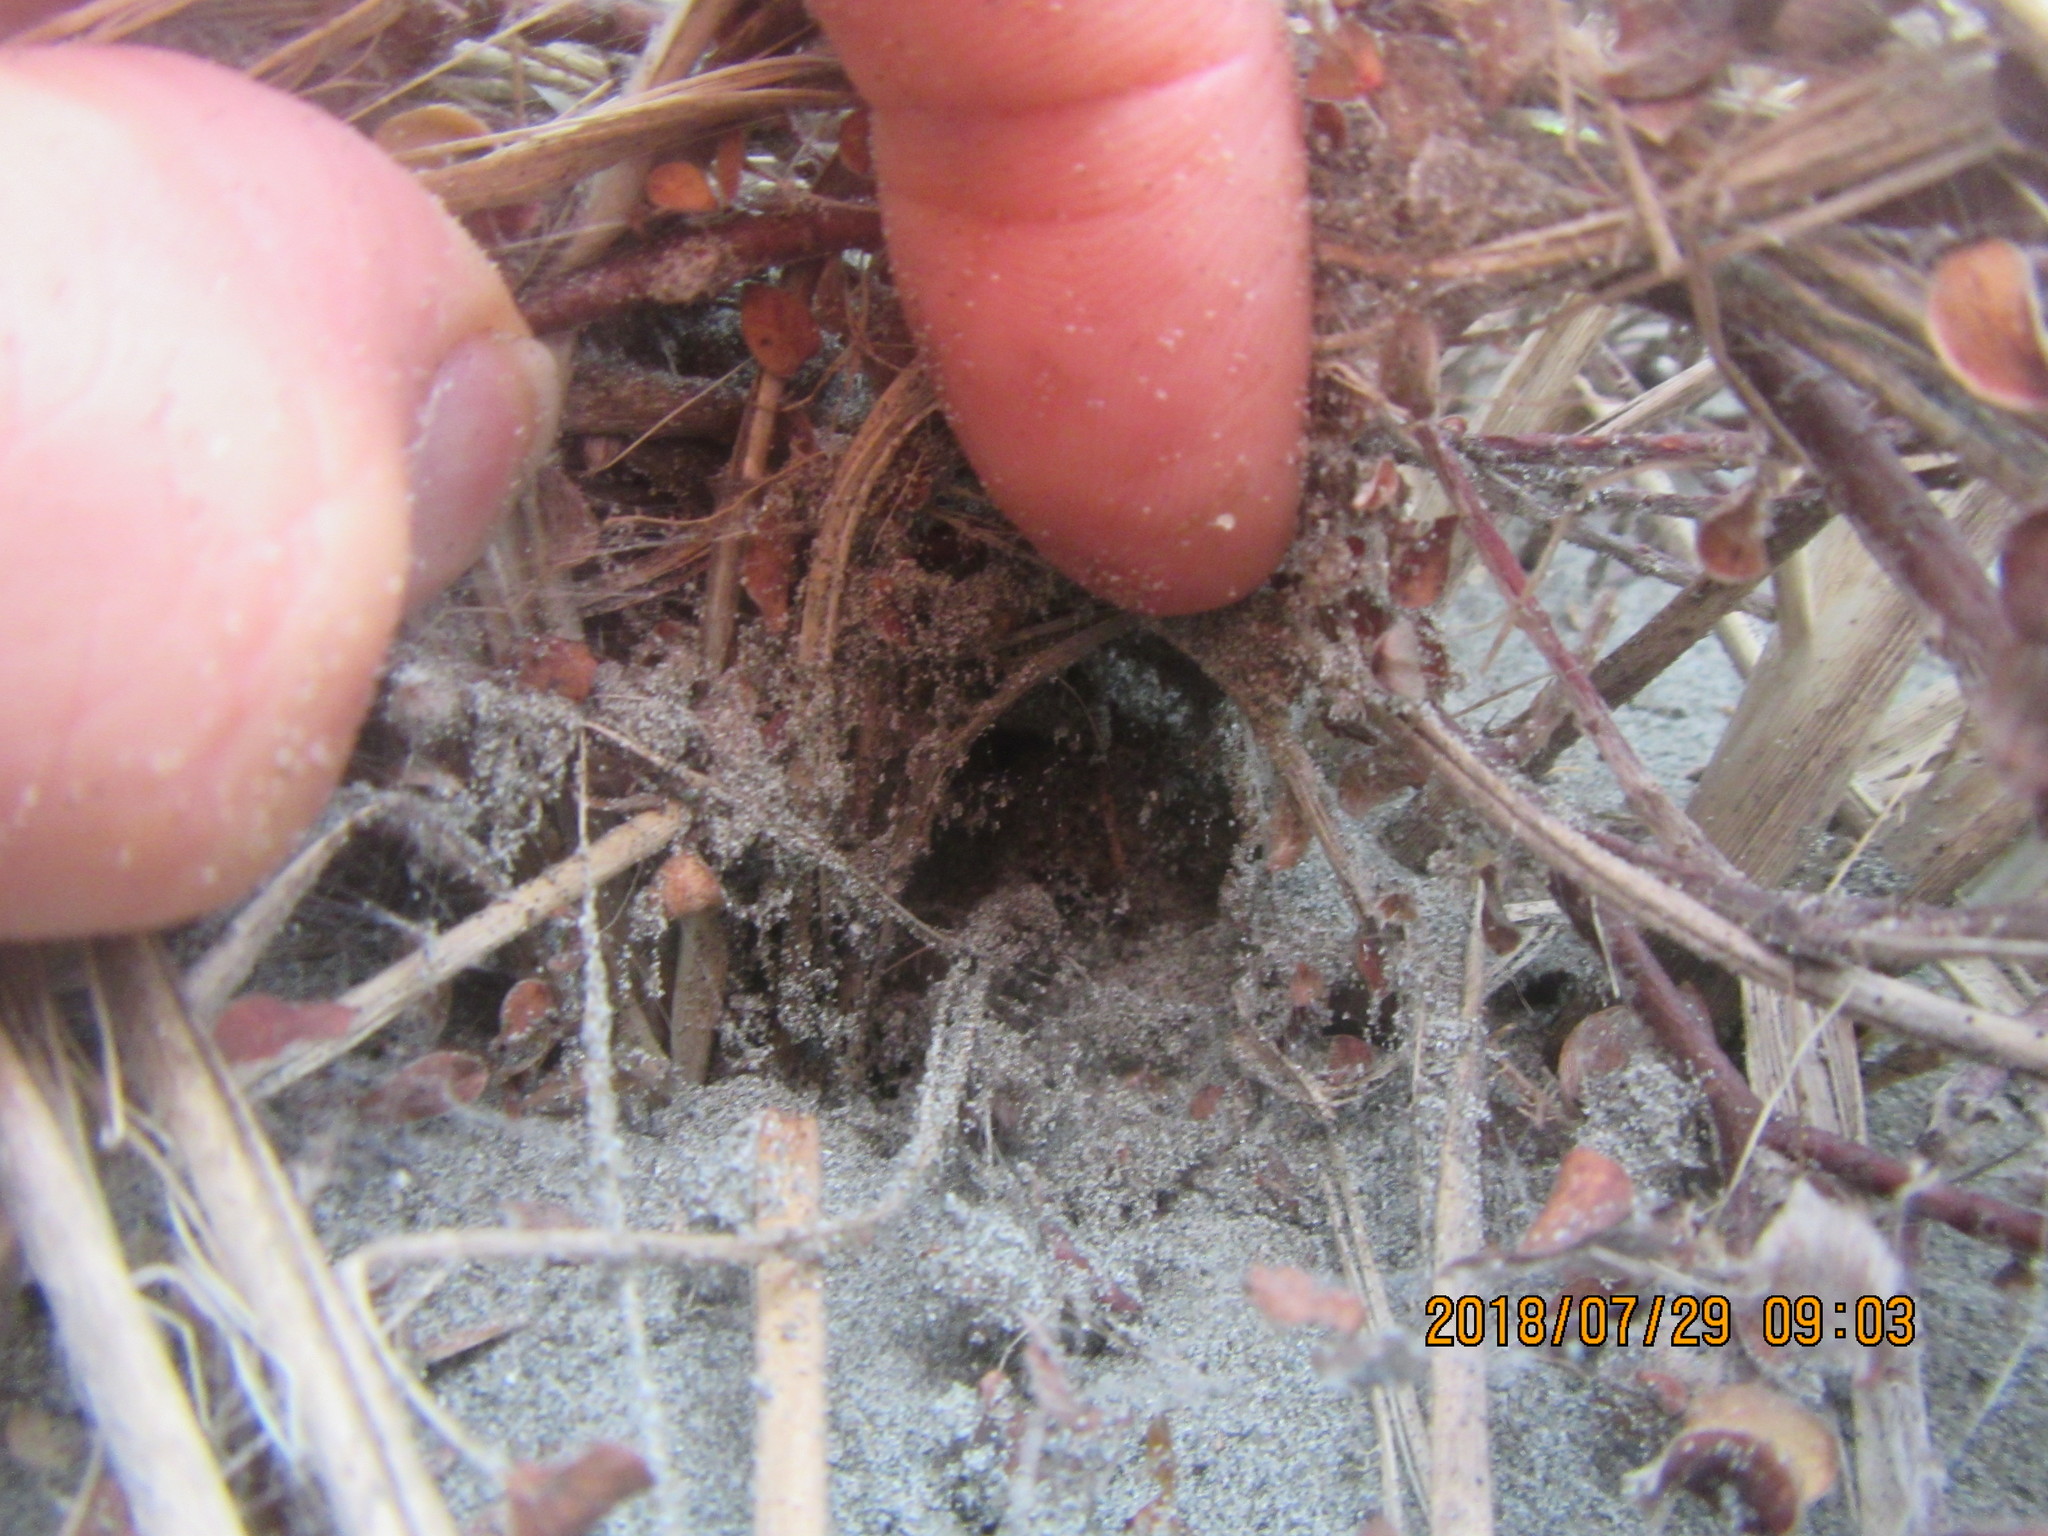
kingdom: Plantae
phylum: Tracheophyta
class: Magnoliopsida
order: Malvales
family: Thymelaeaceae
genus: Pimelea
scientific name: Pimelea villosa
